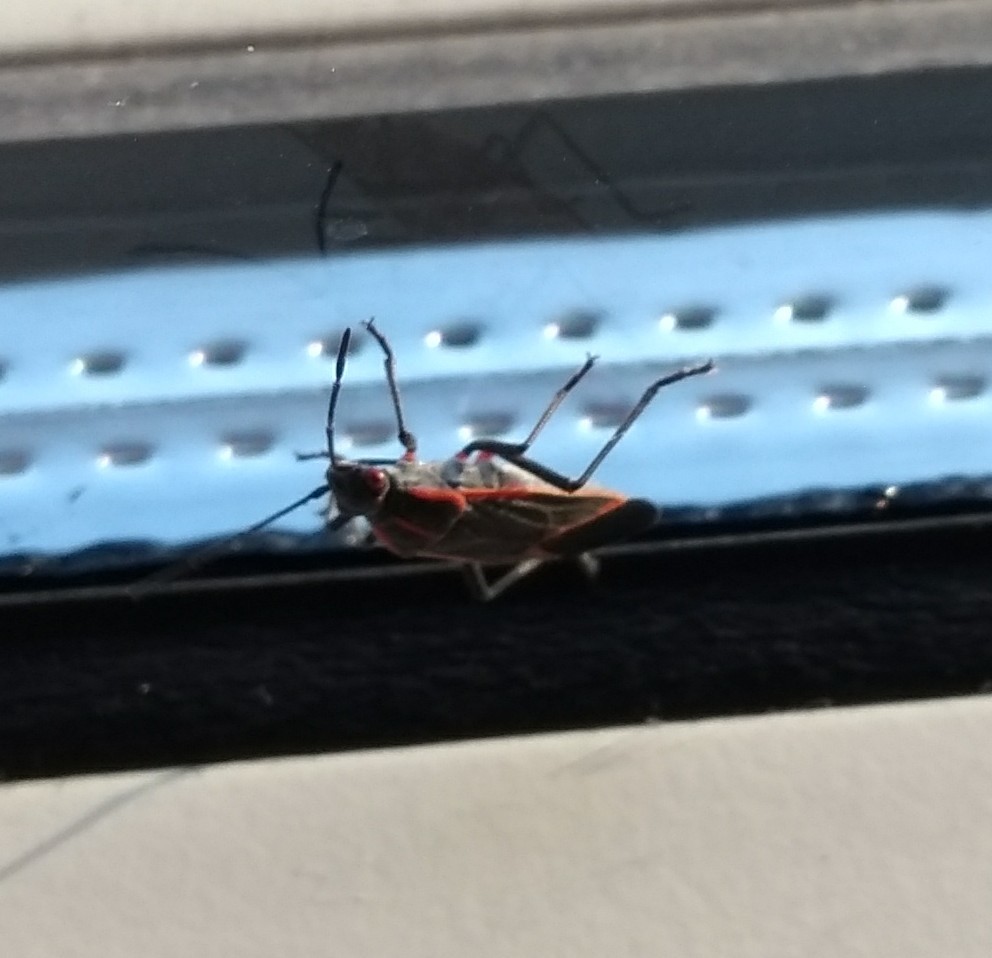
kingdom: Animalia
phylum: Arthropoda
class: Insecta
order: Hemiptera
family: Rhopalidae
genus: Boisea
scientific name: Boisea trivittata
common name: Boxelder bug
